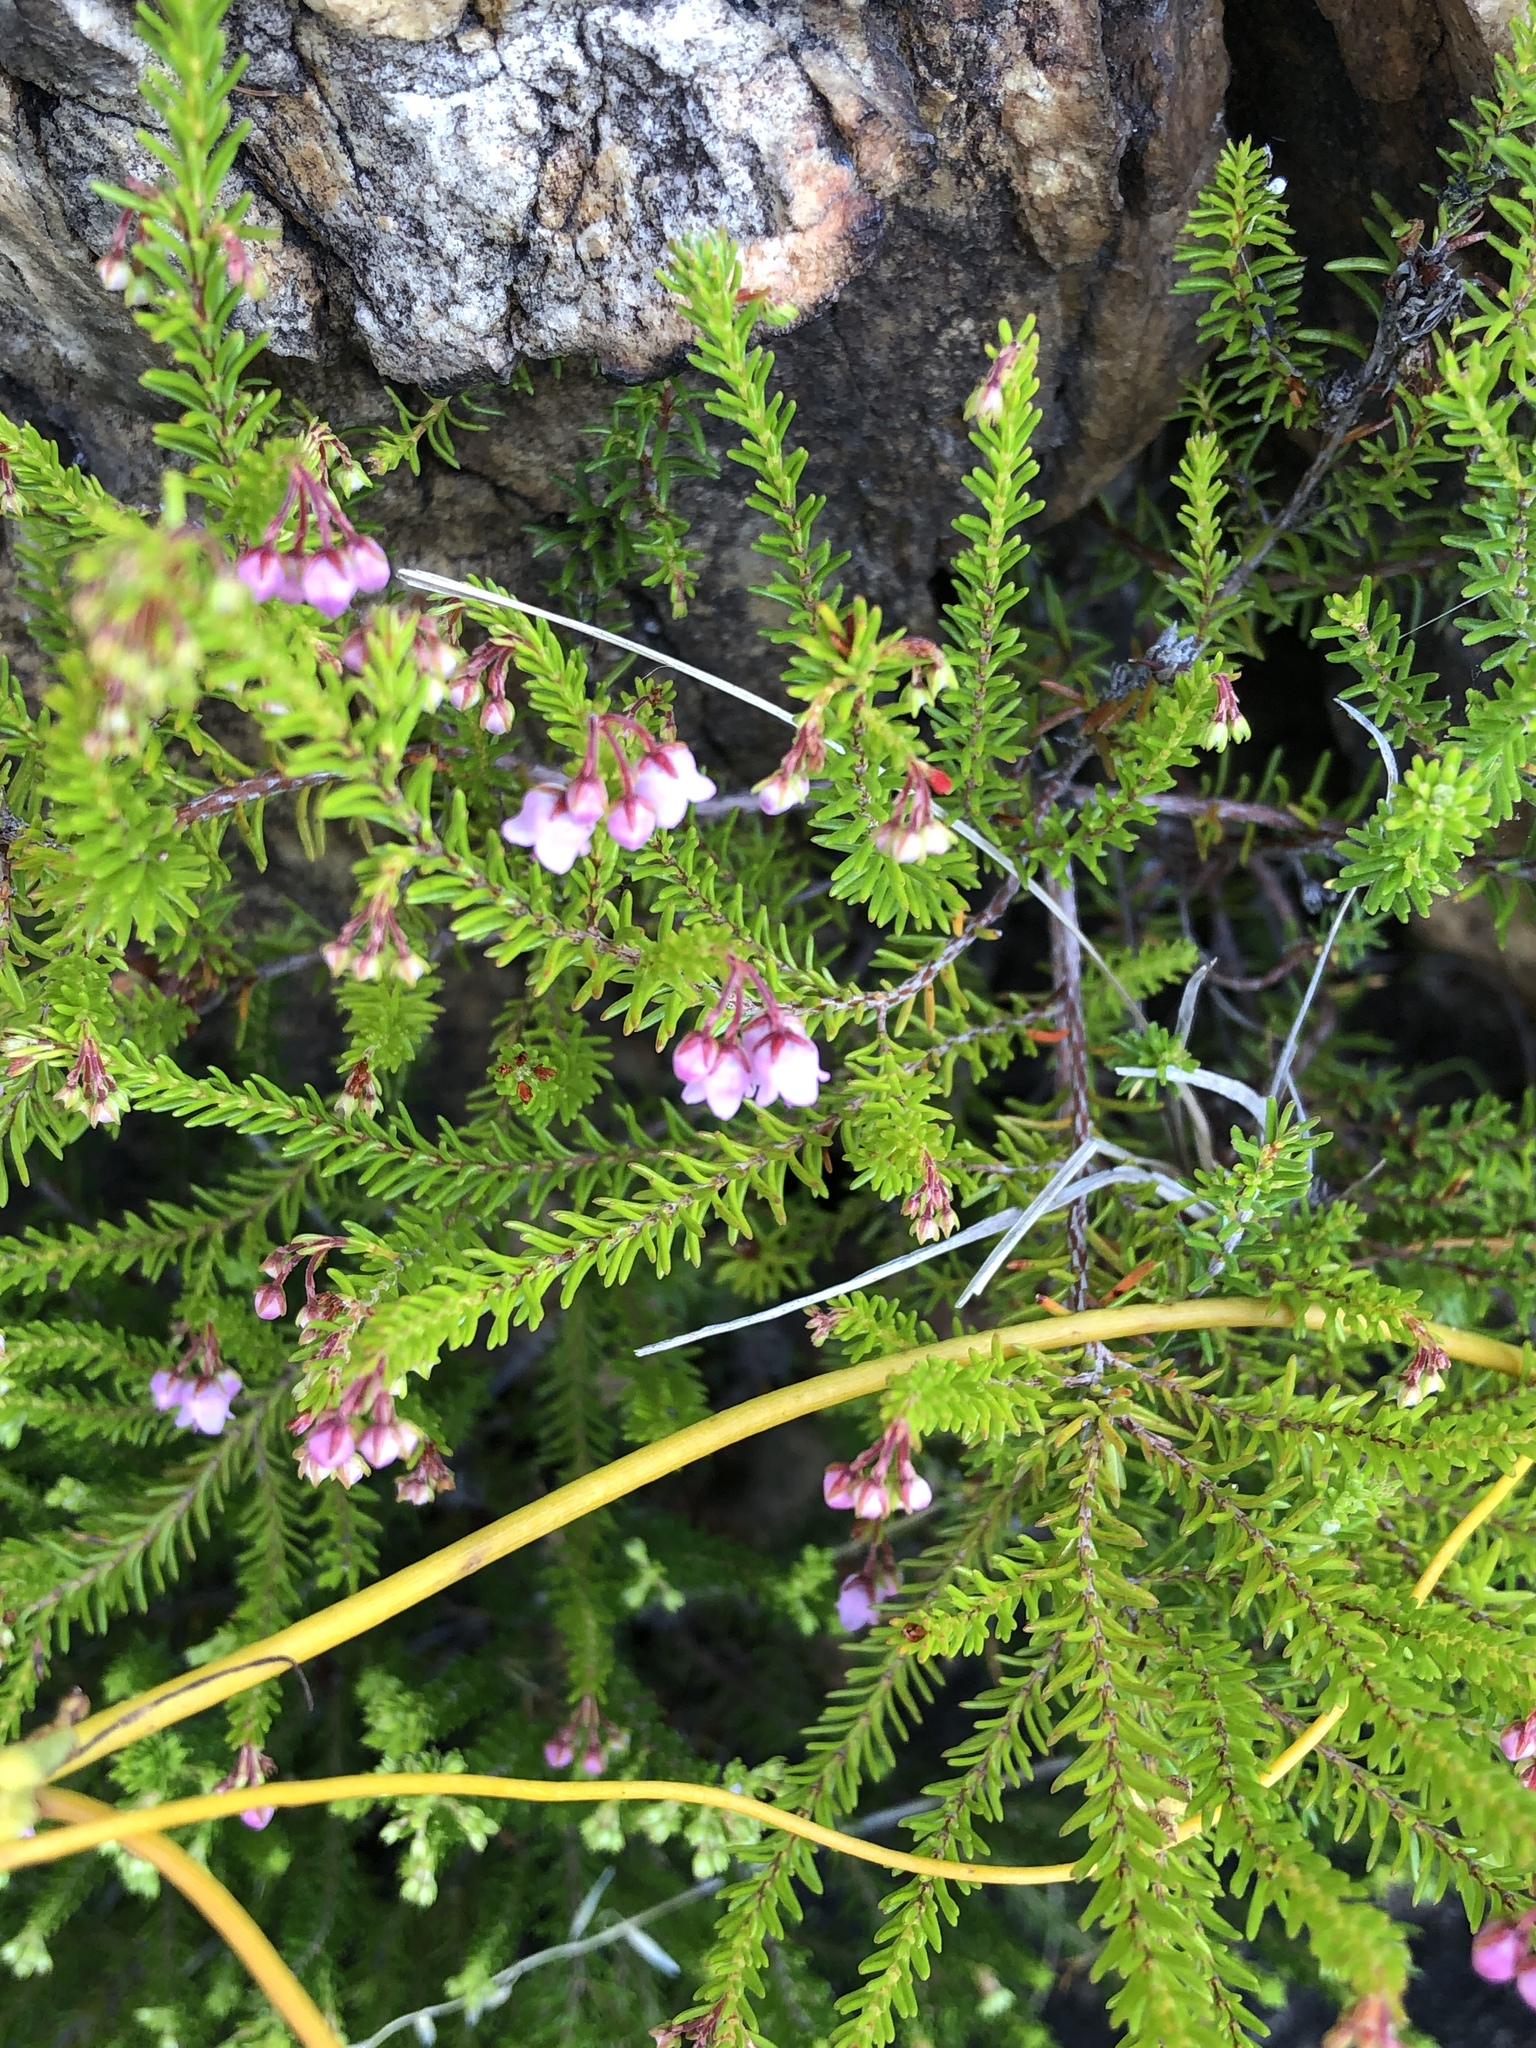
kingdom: Plantae
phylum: Tracheophyta
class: Magnoliopsida
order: Ericales
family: Ericaceae
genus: Erica
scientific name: Erica curvirostris
